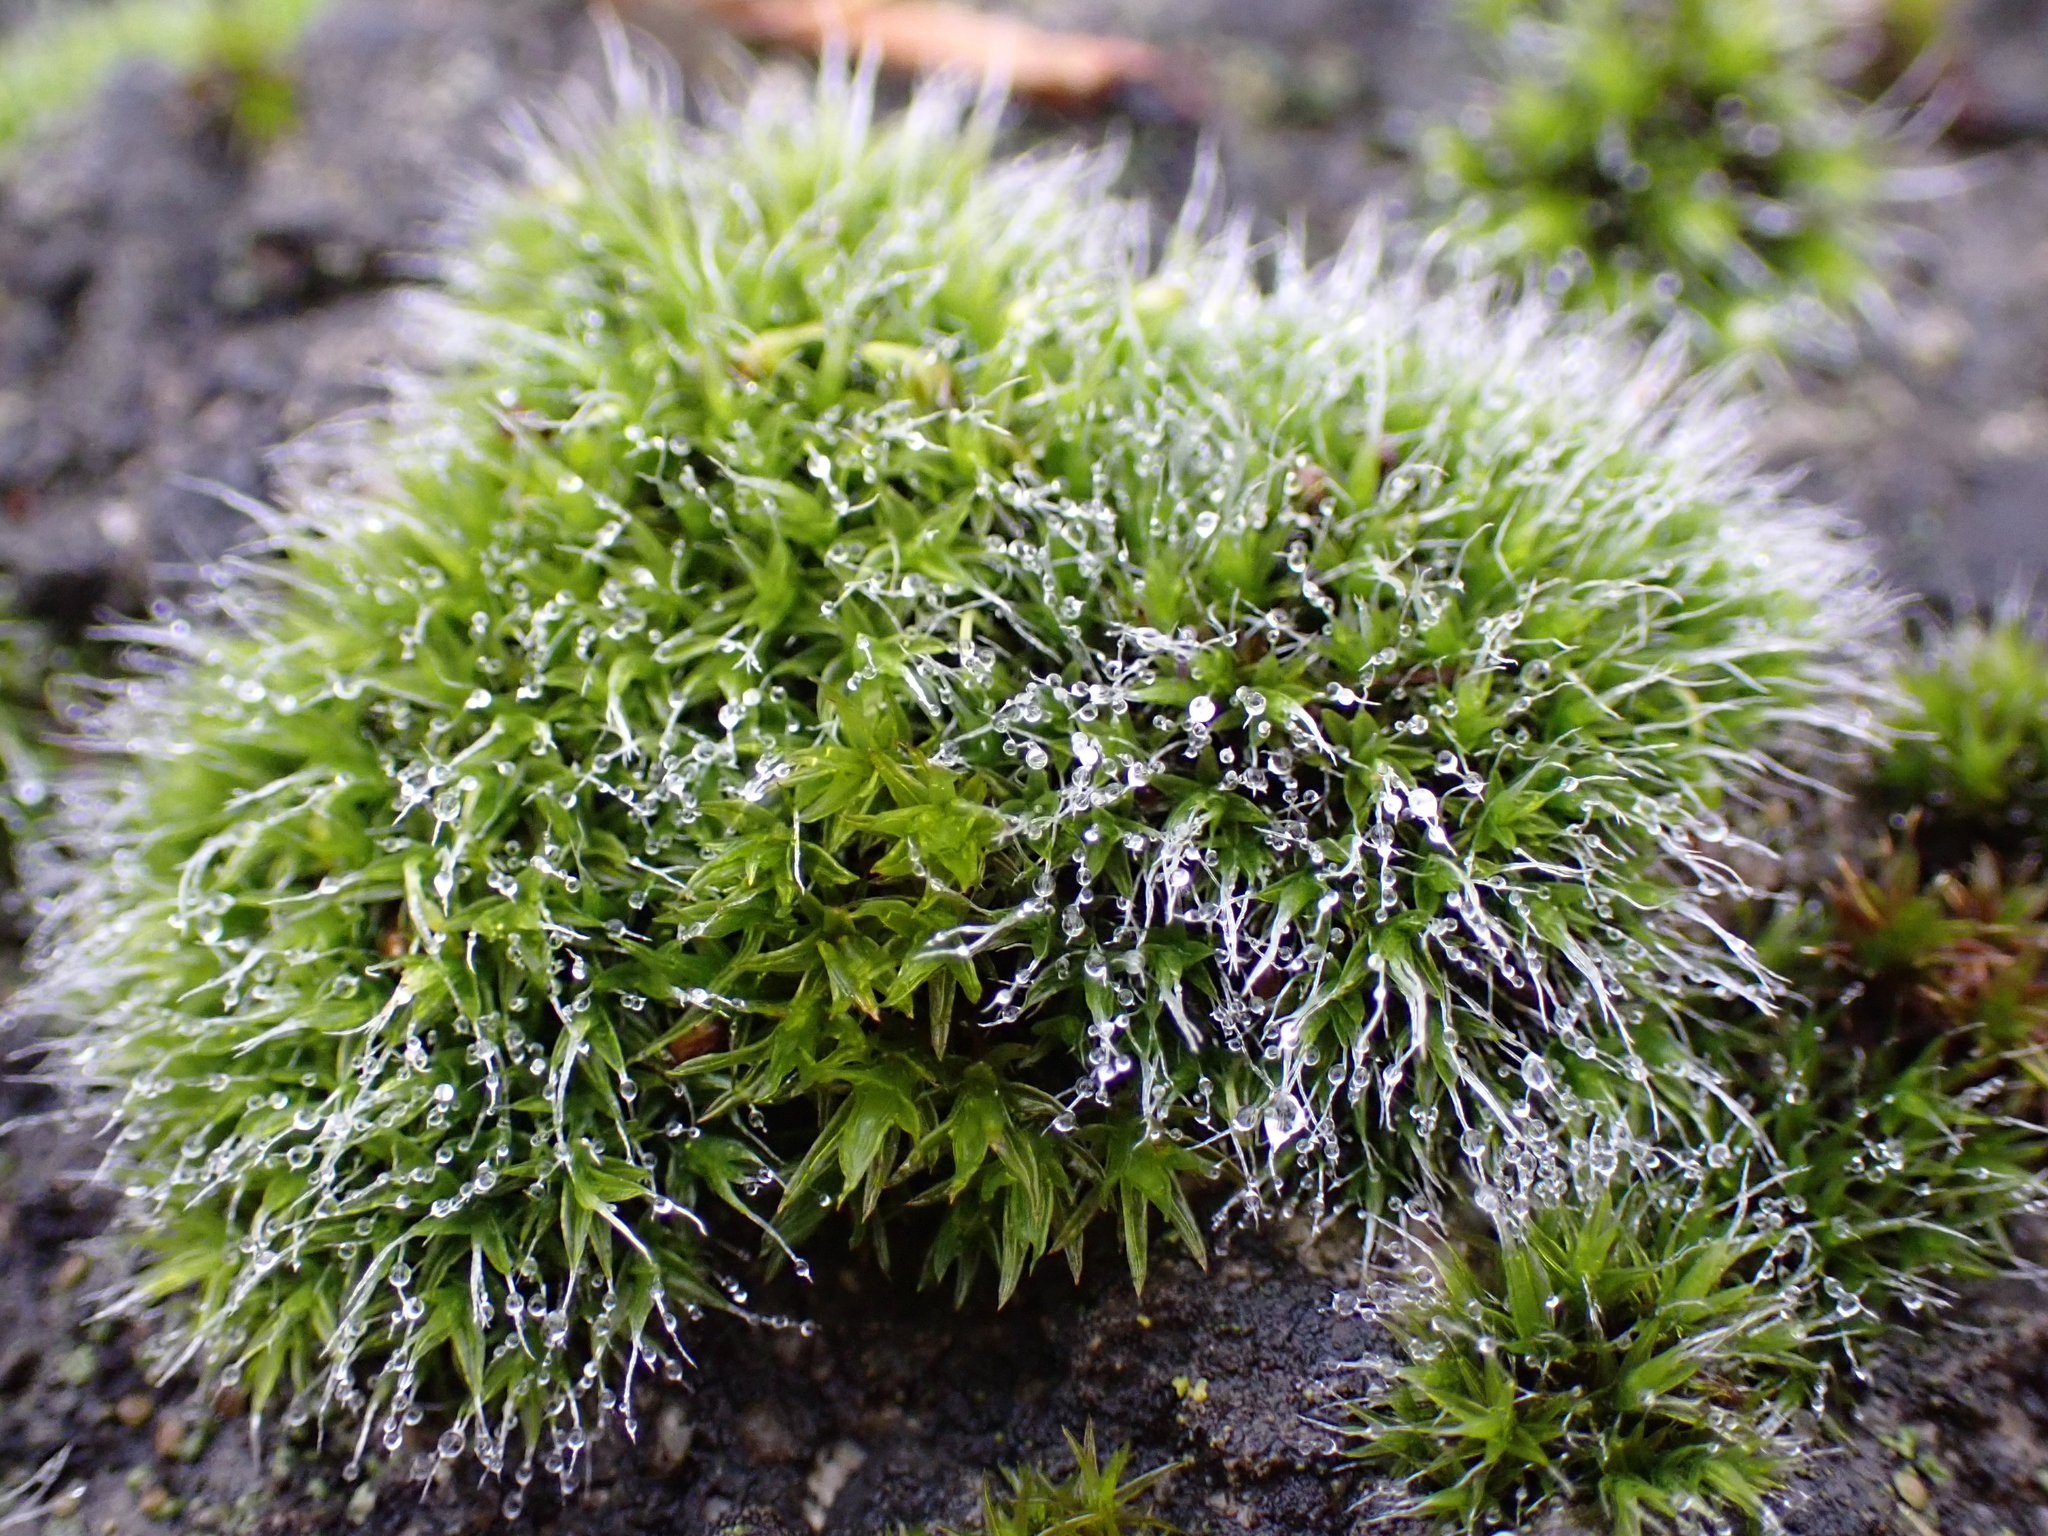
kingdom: Plantae
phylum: Bryophyta
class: Bryopsida
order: Grimmiales
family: Grimmiaceae
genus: Grimmia
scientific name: Grimmia pulvinata
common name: Grey-cushioned grimmia
